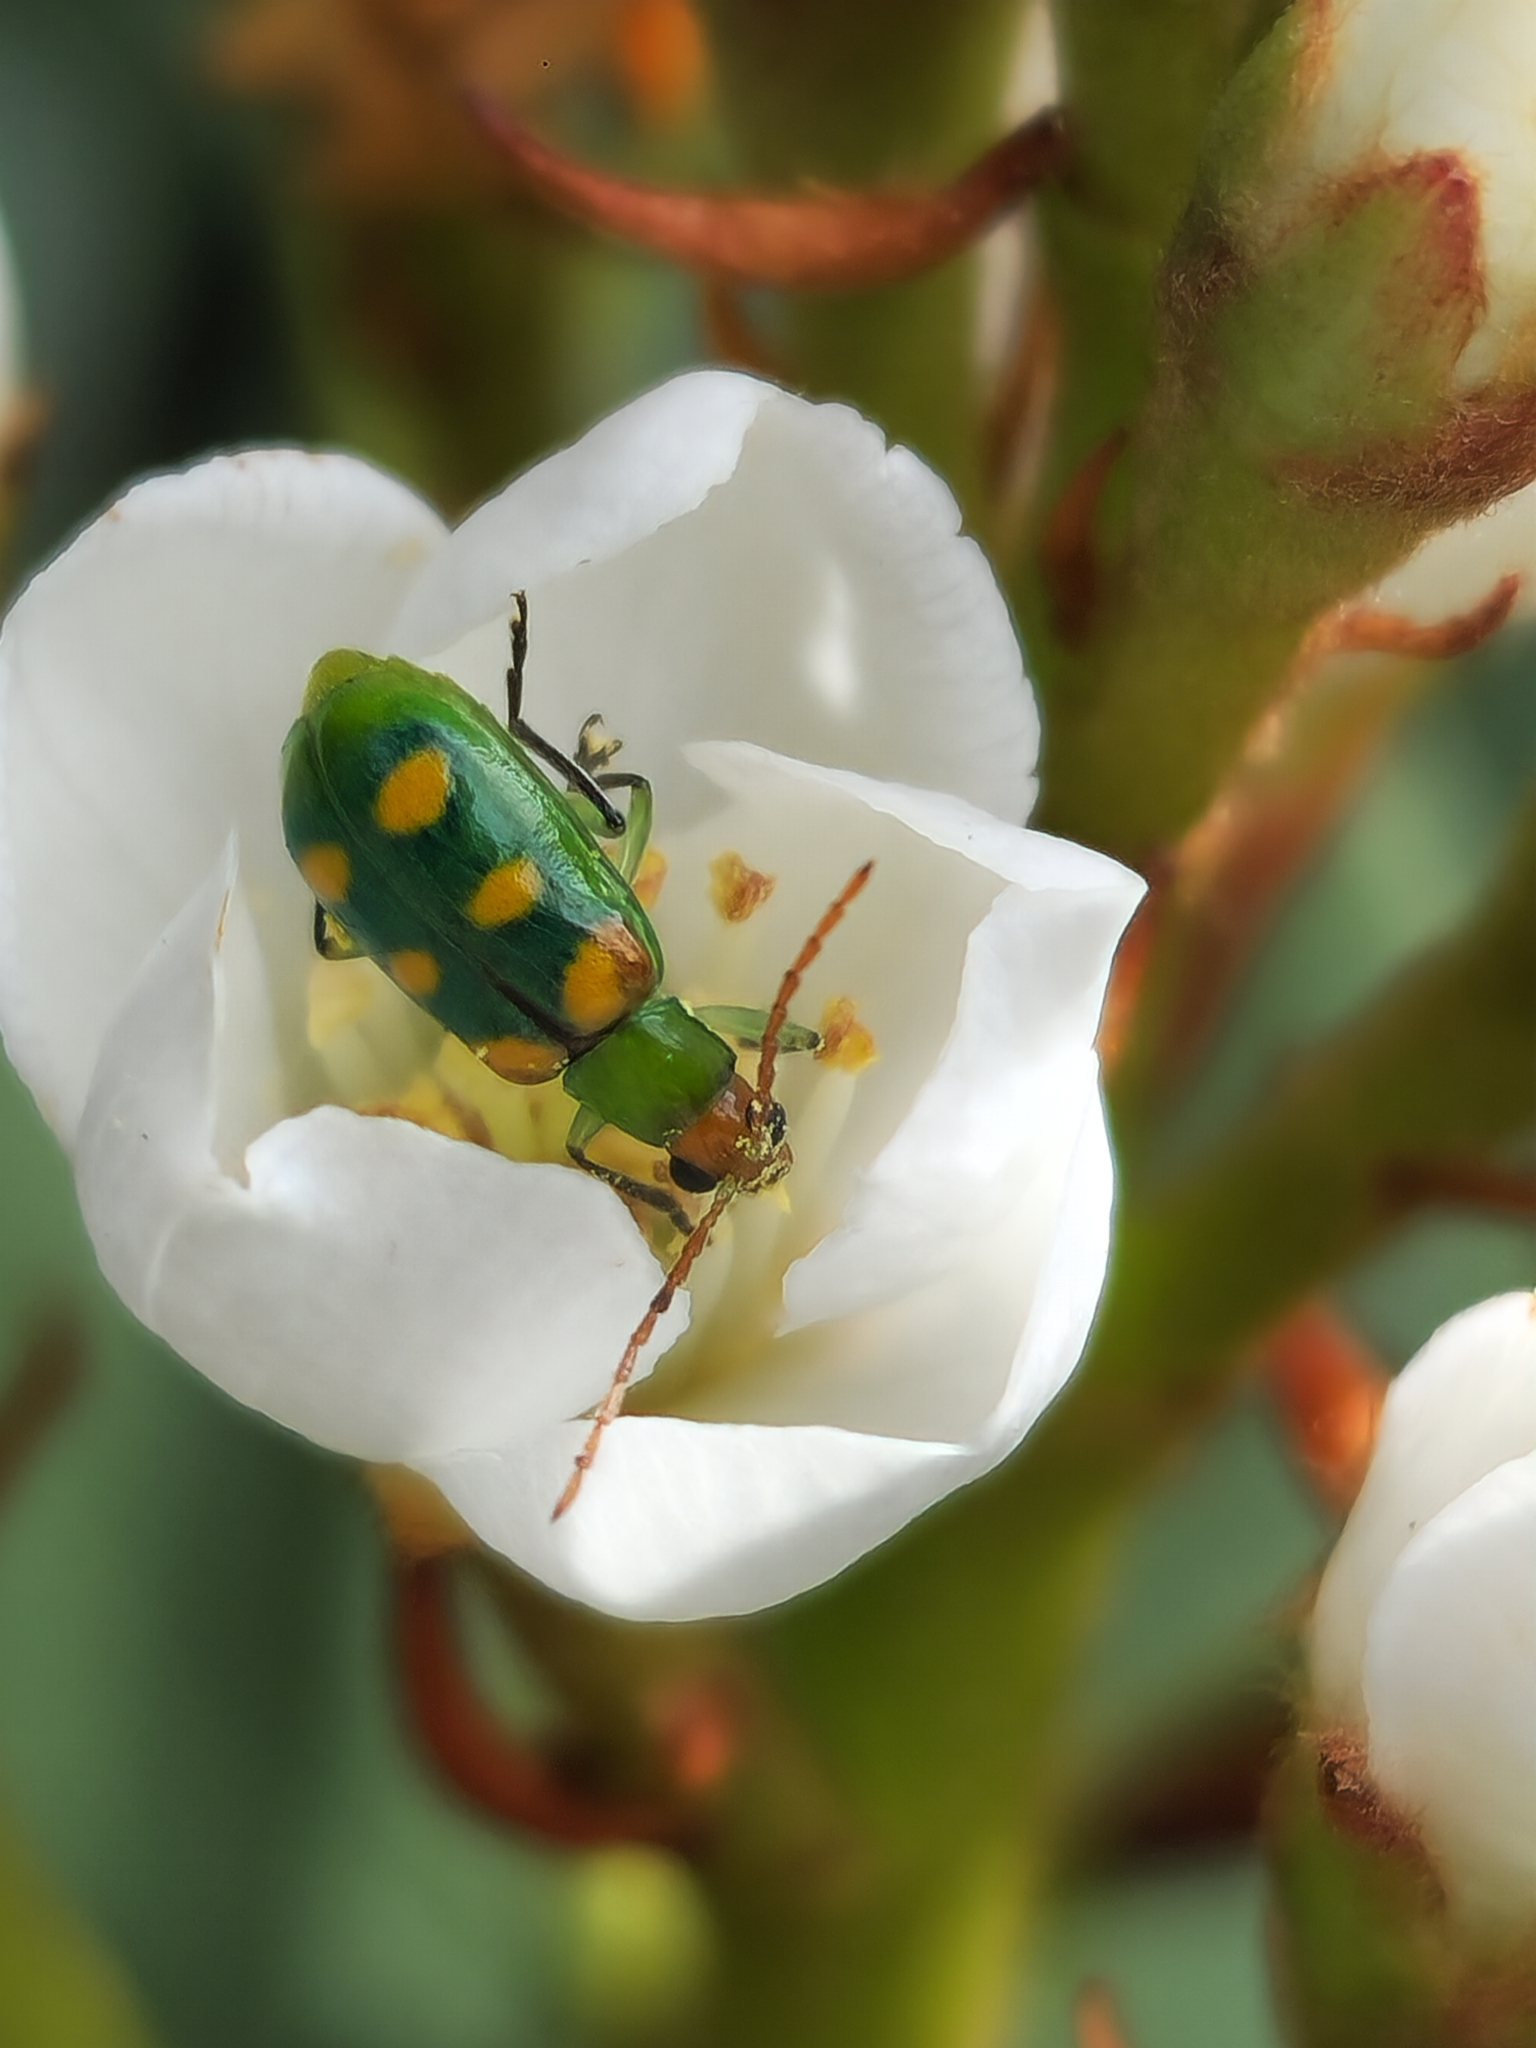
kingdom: Animalia
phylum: Arthropoda
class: Insecta
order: Coleoptera
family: Chrysomelidae
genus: Diabrotica
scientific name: Diabrotica speciosa
